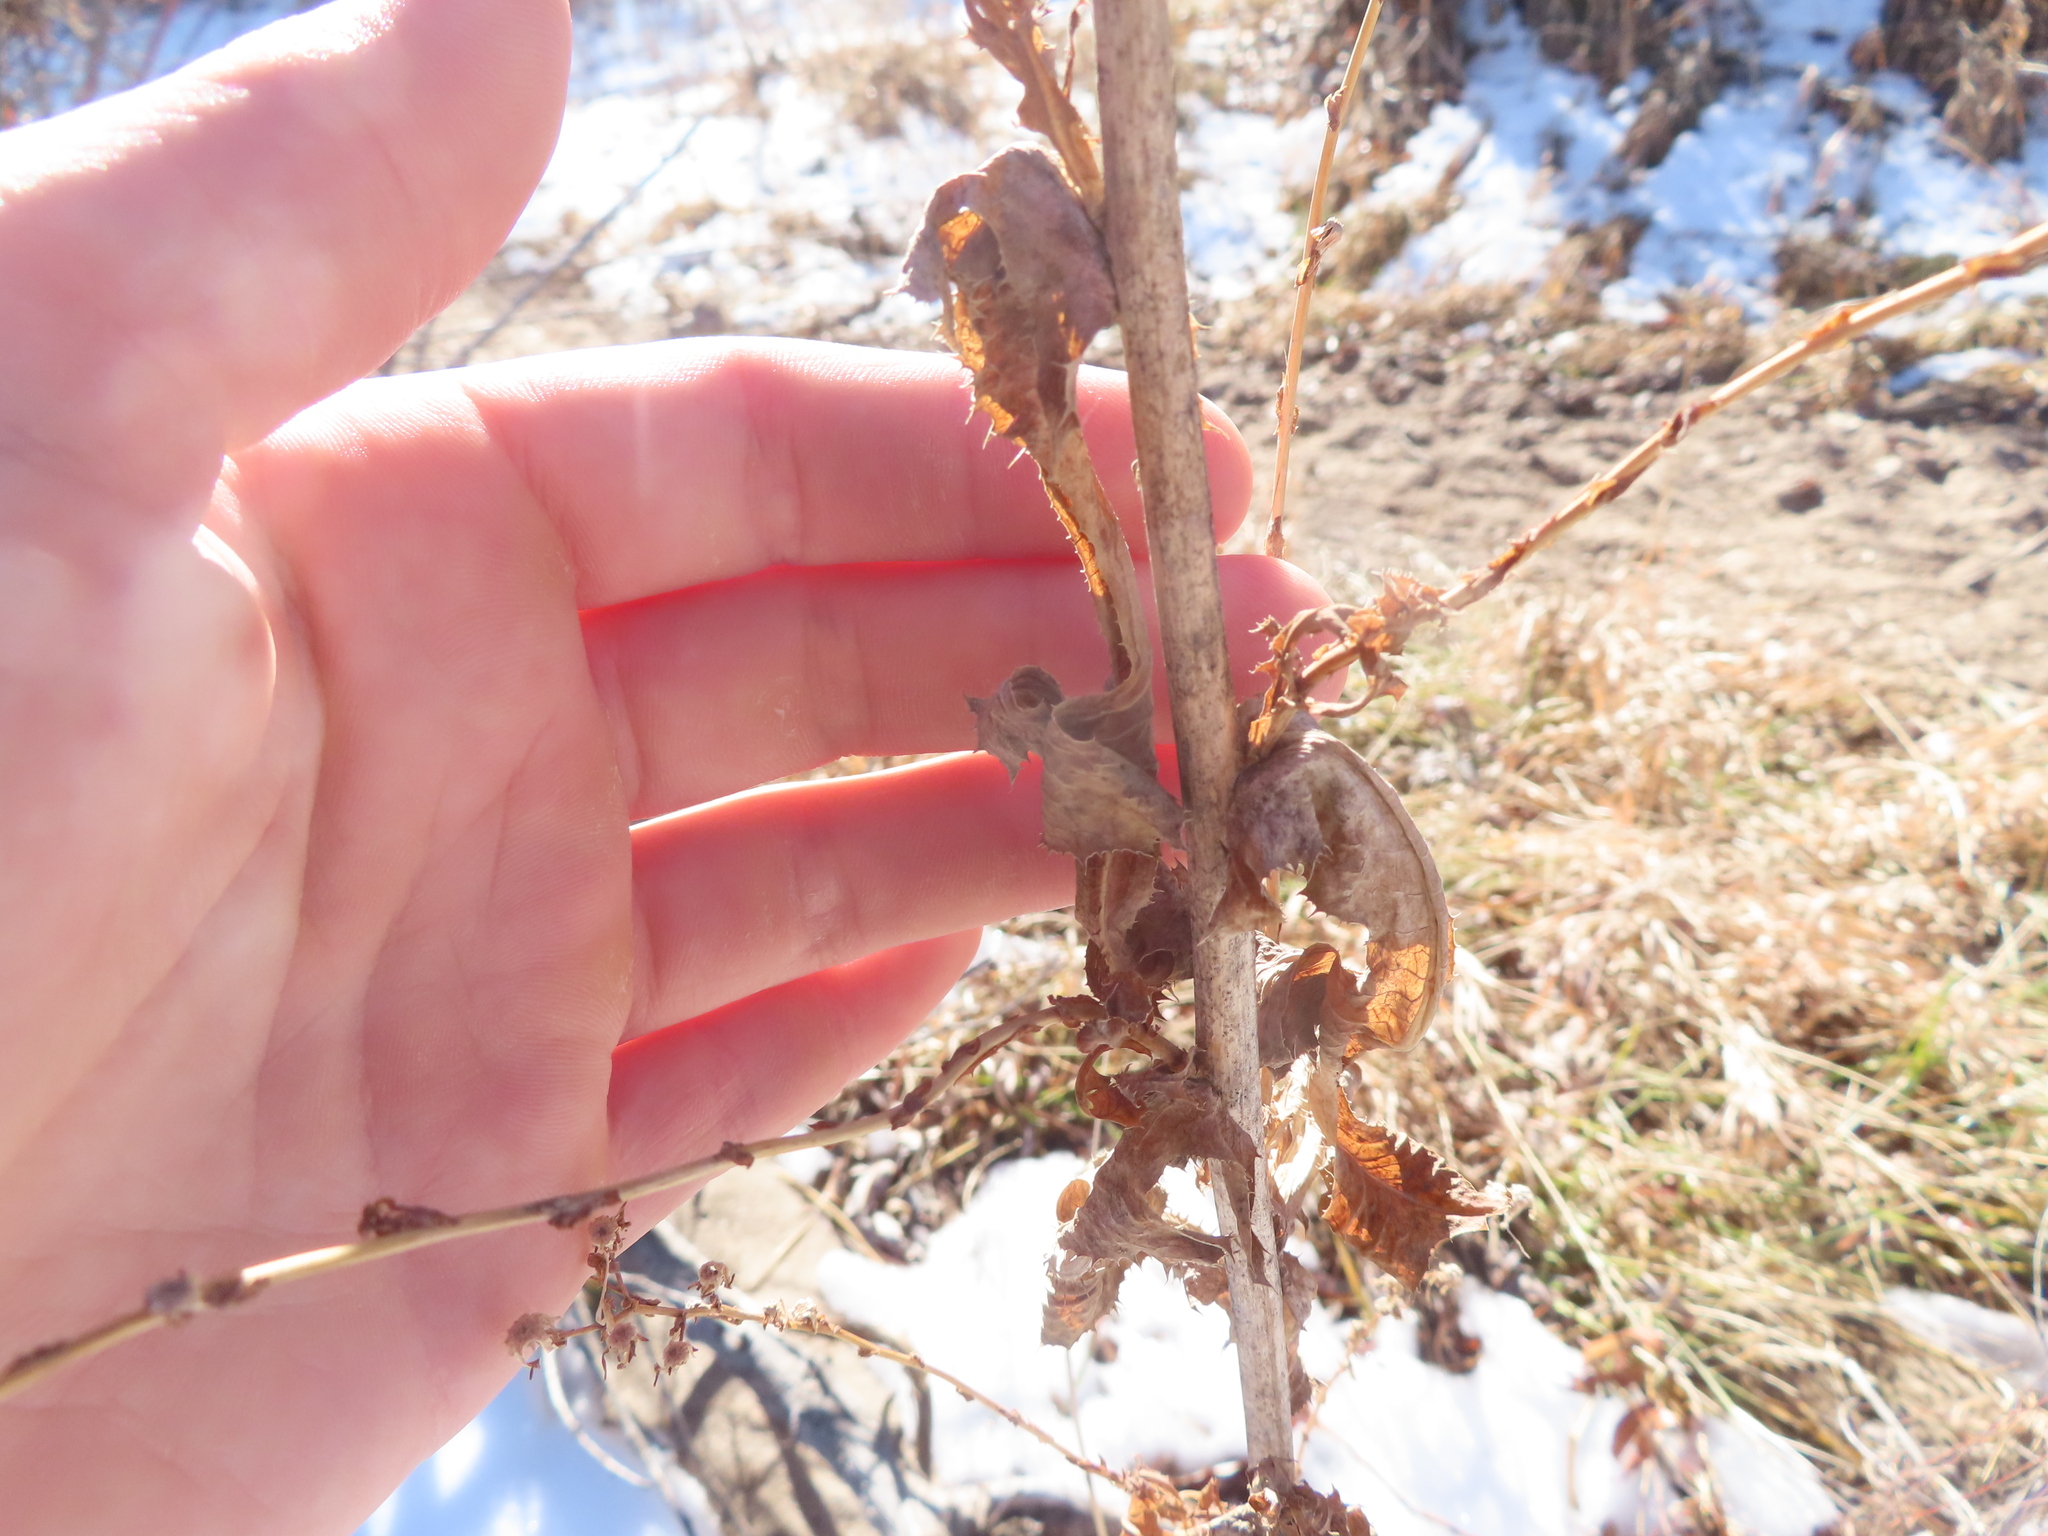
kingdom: Plantae
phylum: Tracheophyta
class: Magnoliopsida
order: Asterales
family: Asteraceae
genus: Onopordum
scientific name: Onopordum acanthium
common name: Scotch thistle
